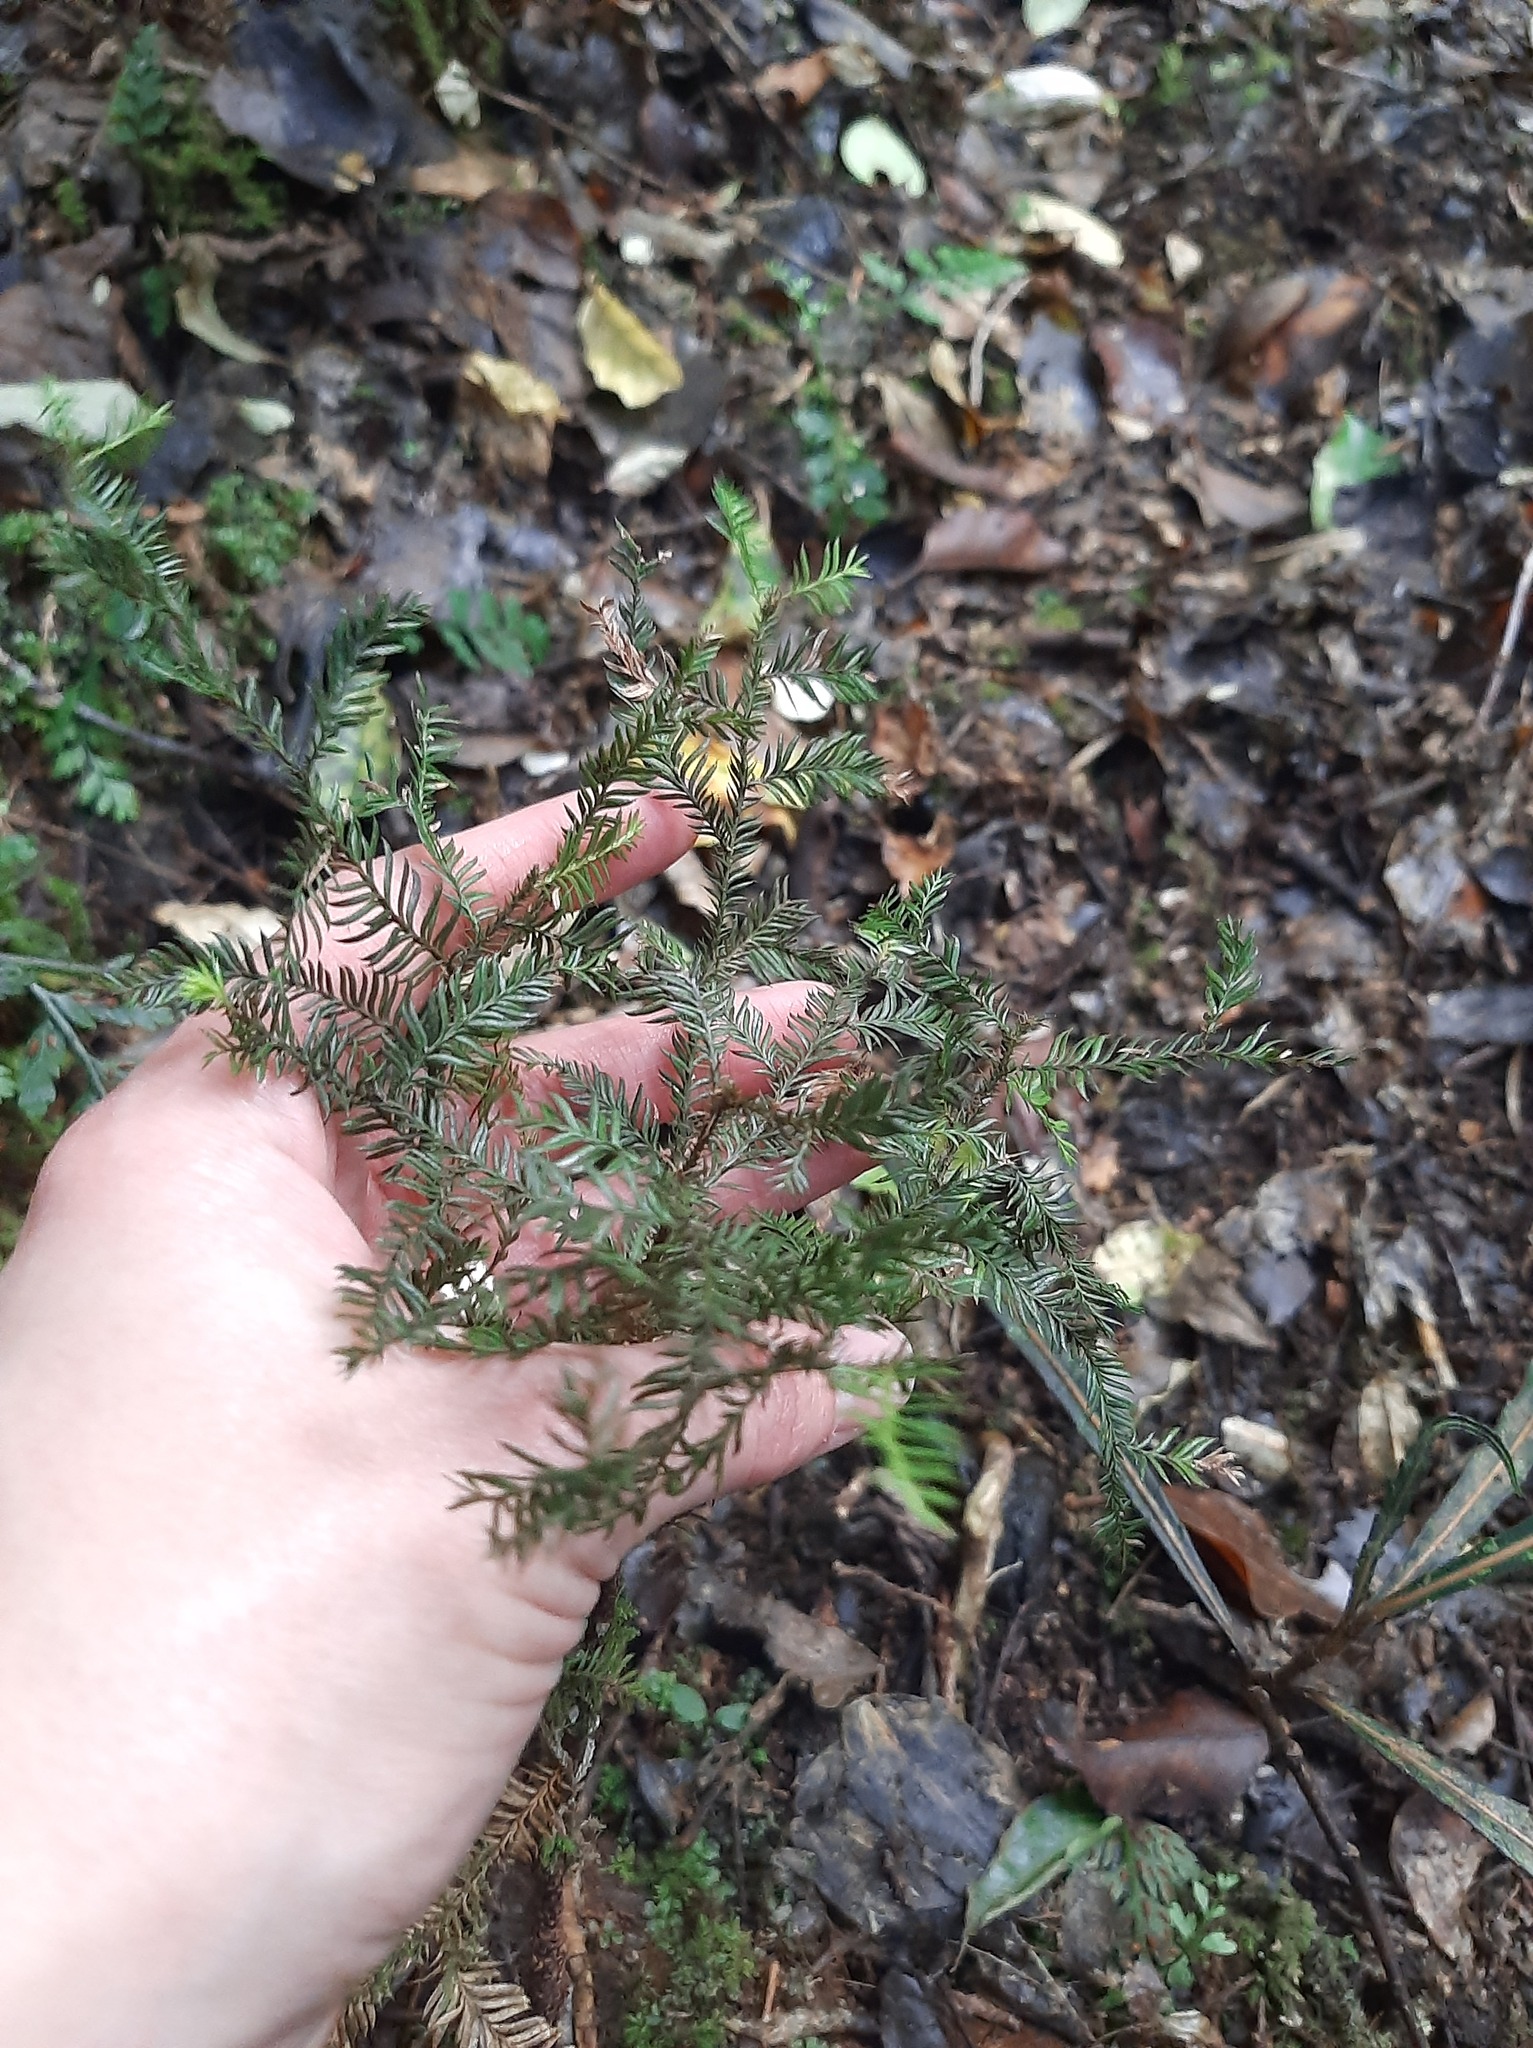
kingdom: Plantae
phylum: Tracheophyta
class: Pinopsida
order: Pinales
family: Podocarpaceae
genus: Dacrycarpus
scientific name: Dacrycarpus dacrydioides
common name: White pine
